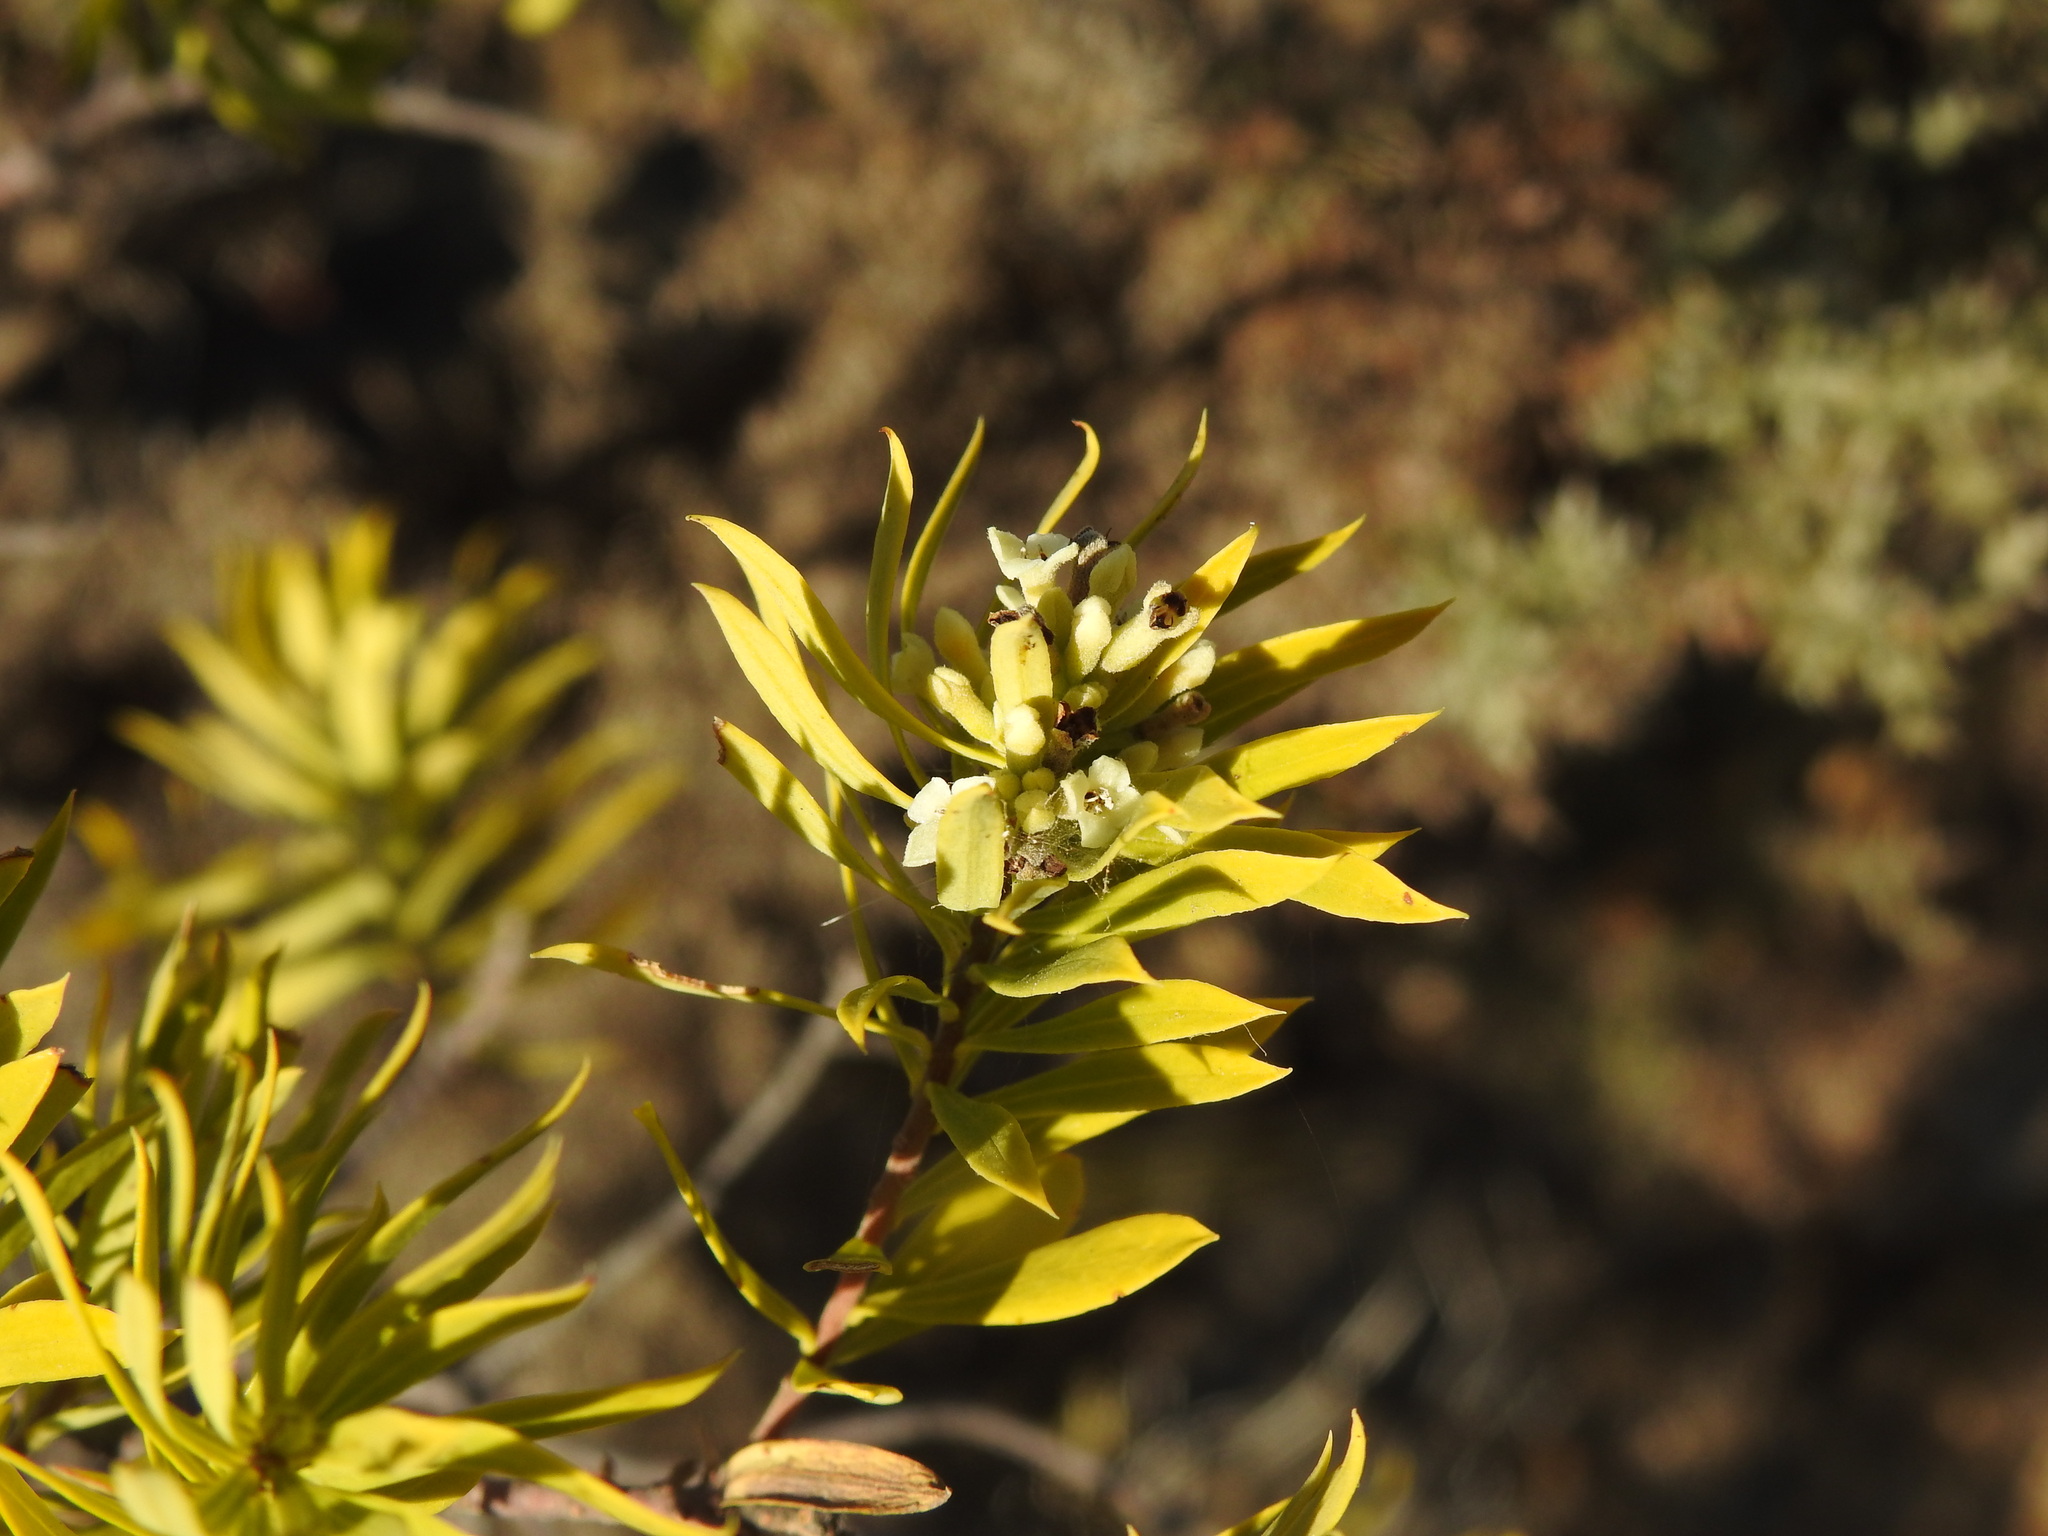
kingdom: Plantae
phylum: Tracheophyta
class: Magnoliopsida
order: Malvales
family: Thymelaeaceae
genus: Daphne
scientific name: Daphne gnidium
